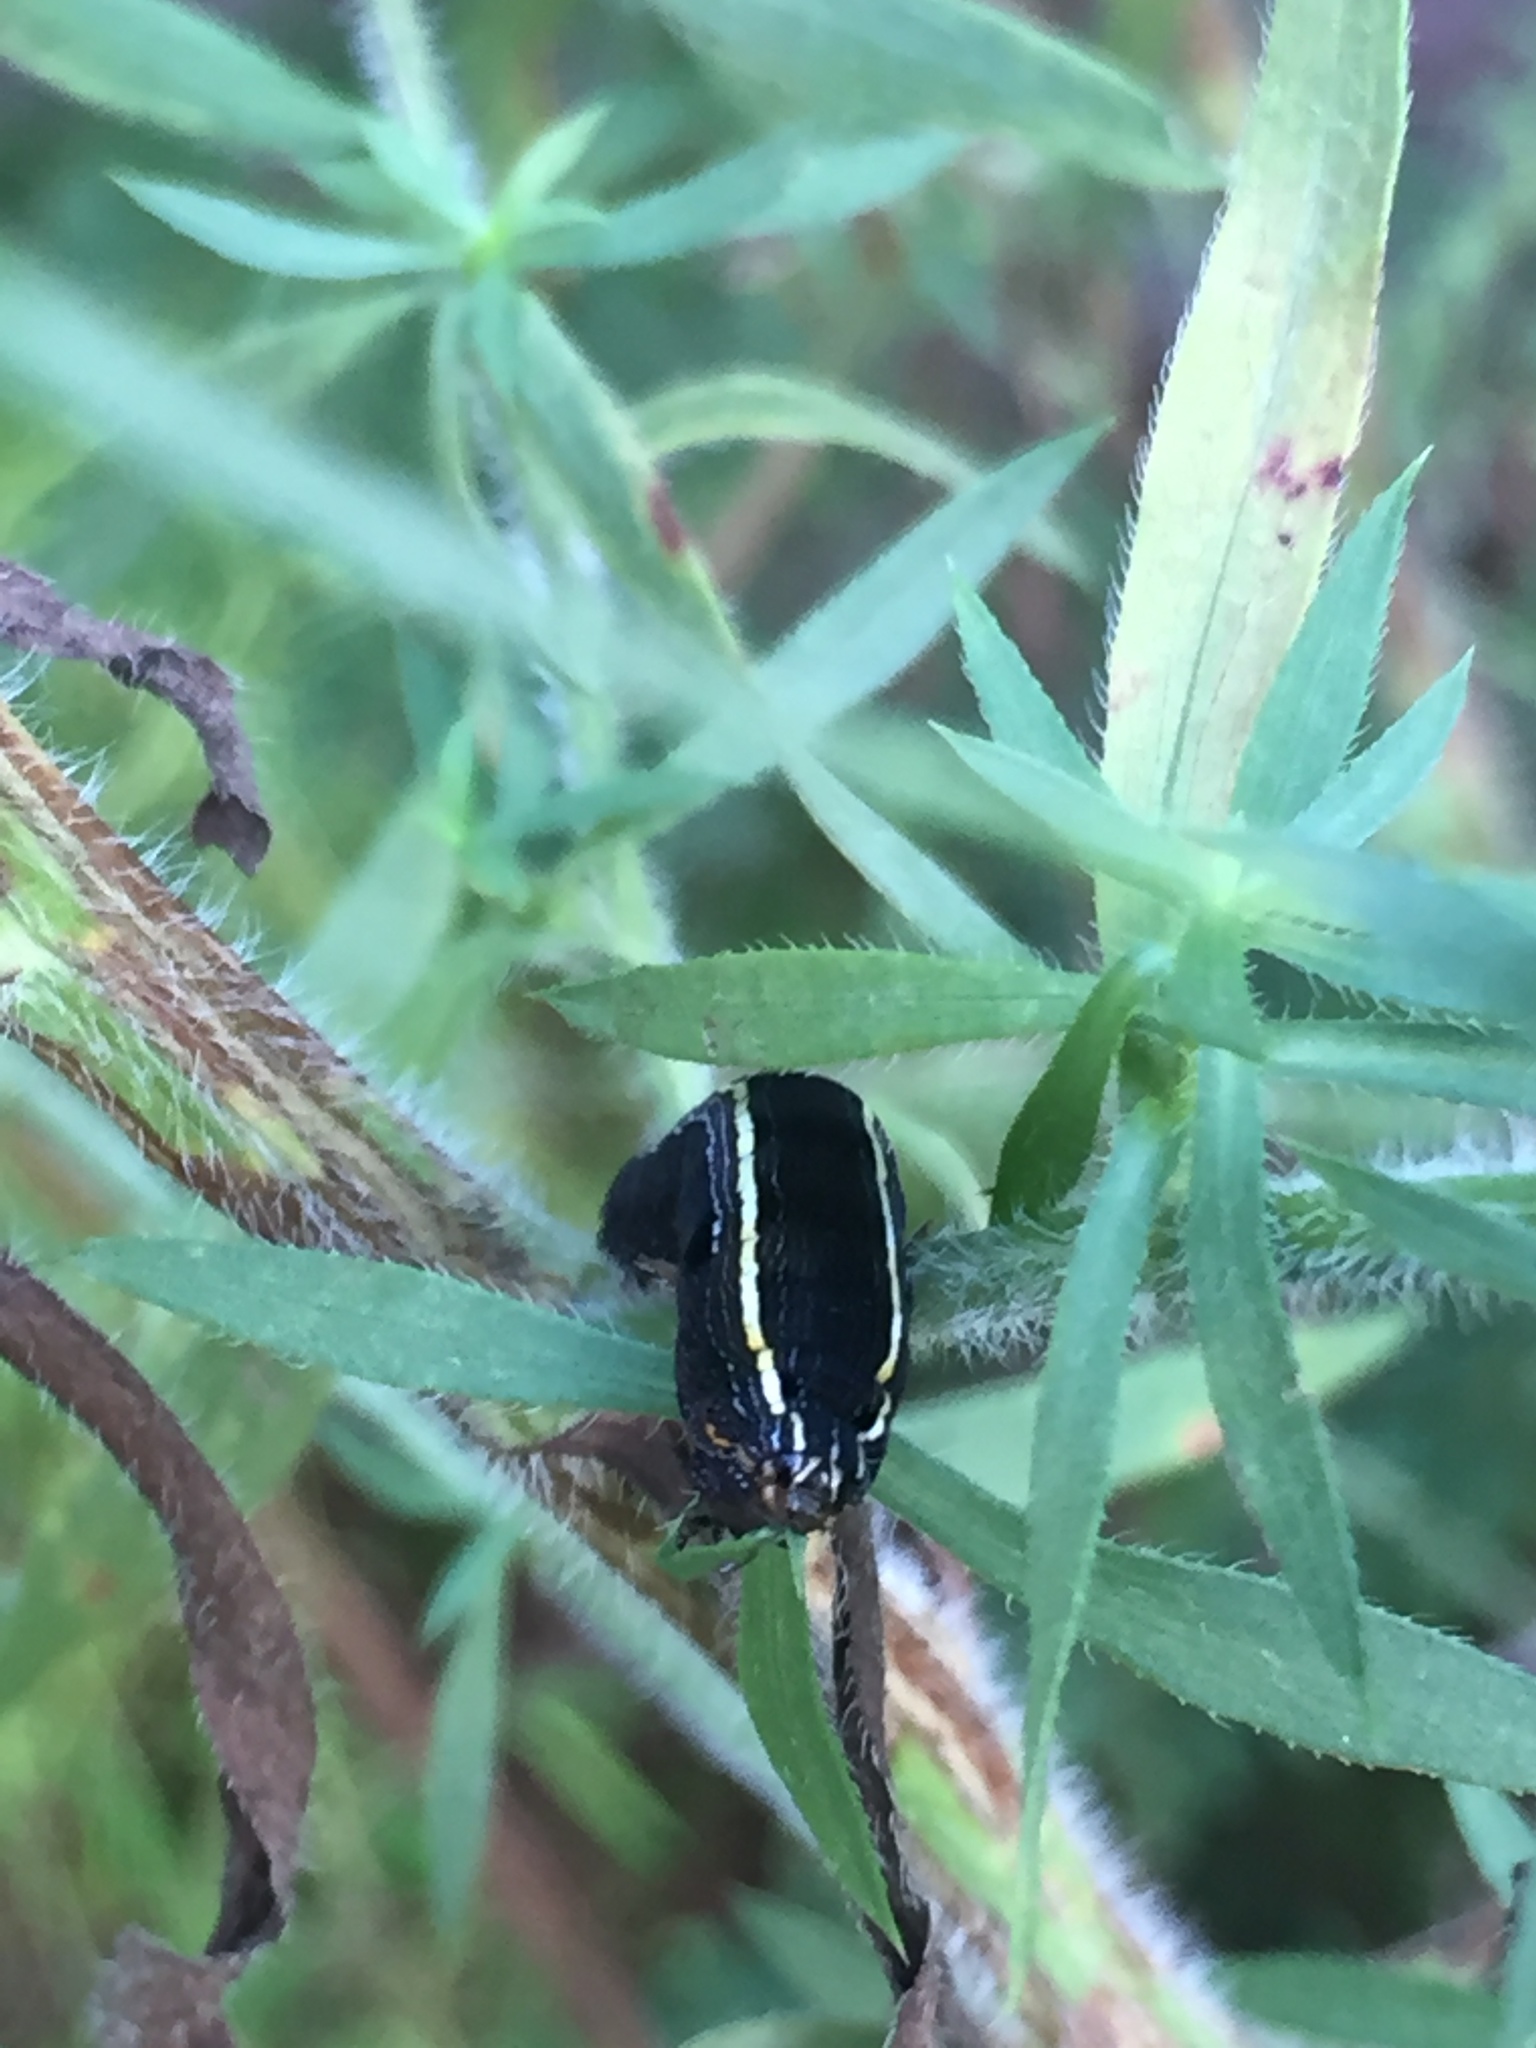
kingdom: Animalia
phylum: Arthropoda
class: Insecta
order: Lepidoptera
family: Noctuidae
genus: Spodoptera
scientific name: Spodoptera ornithogalli
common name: Yellow-striped armyworm
